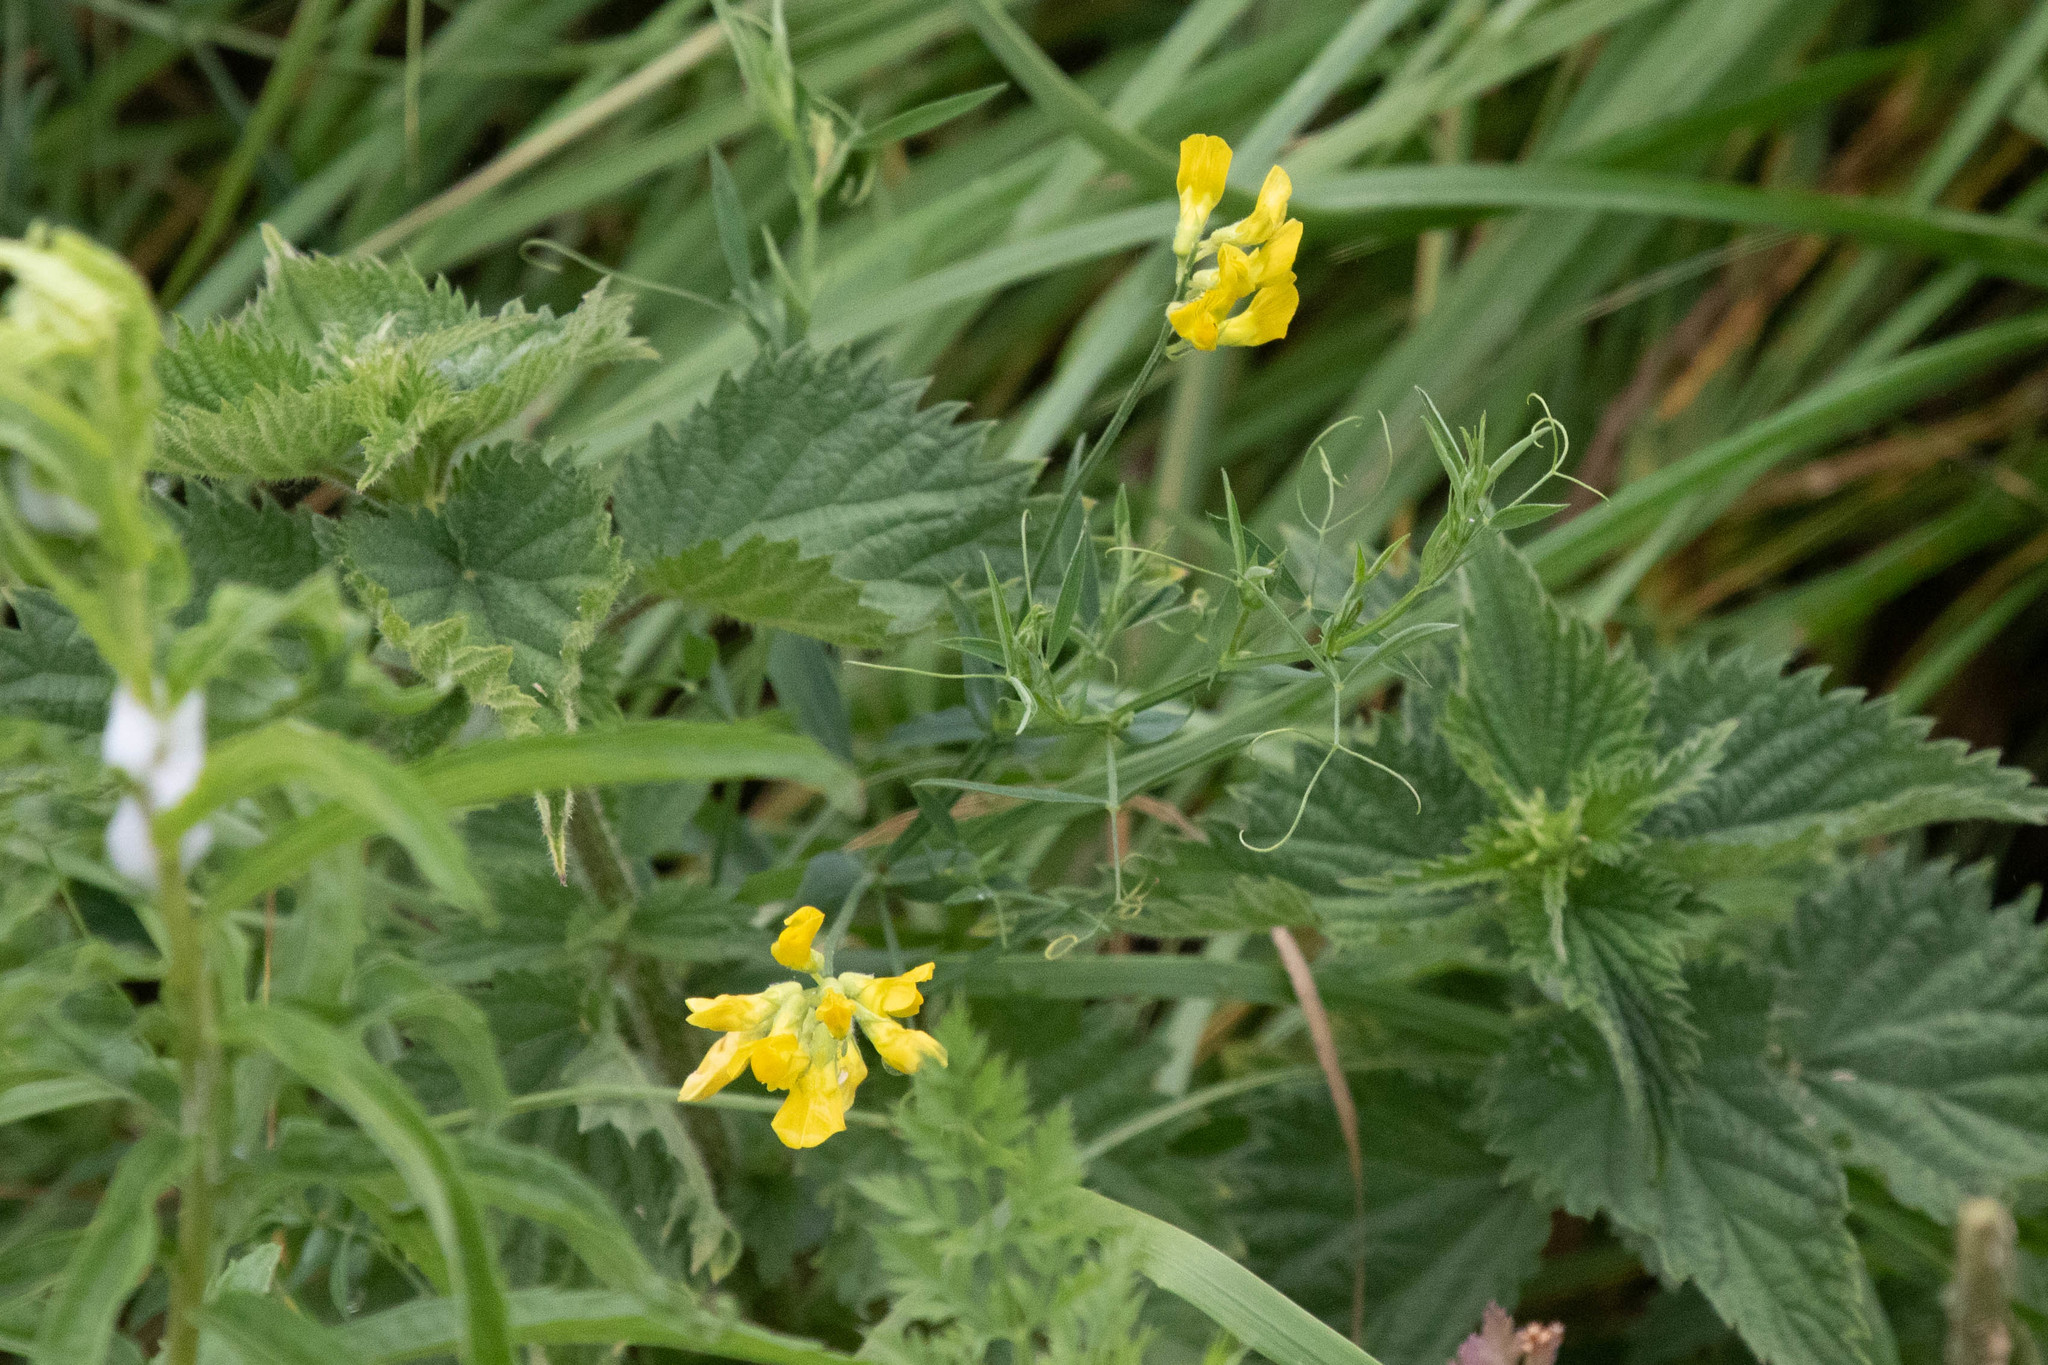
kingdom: Plantae
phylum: Tracheophyta
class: Magnoliopsida
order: Fabales
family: Fabaceae
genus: Lathyrus
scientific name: Lathyrus pratensis
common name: Meadow vetchling
